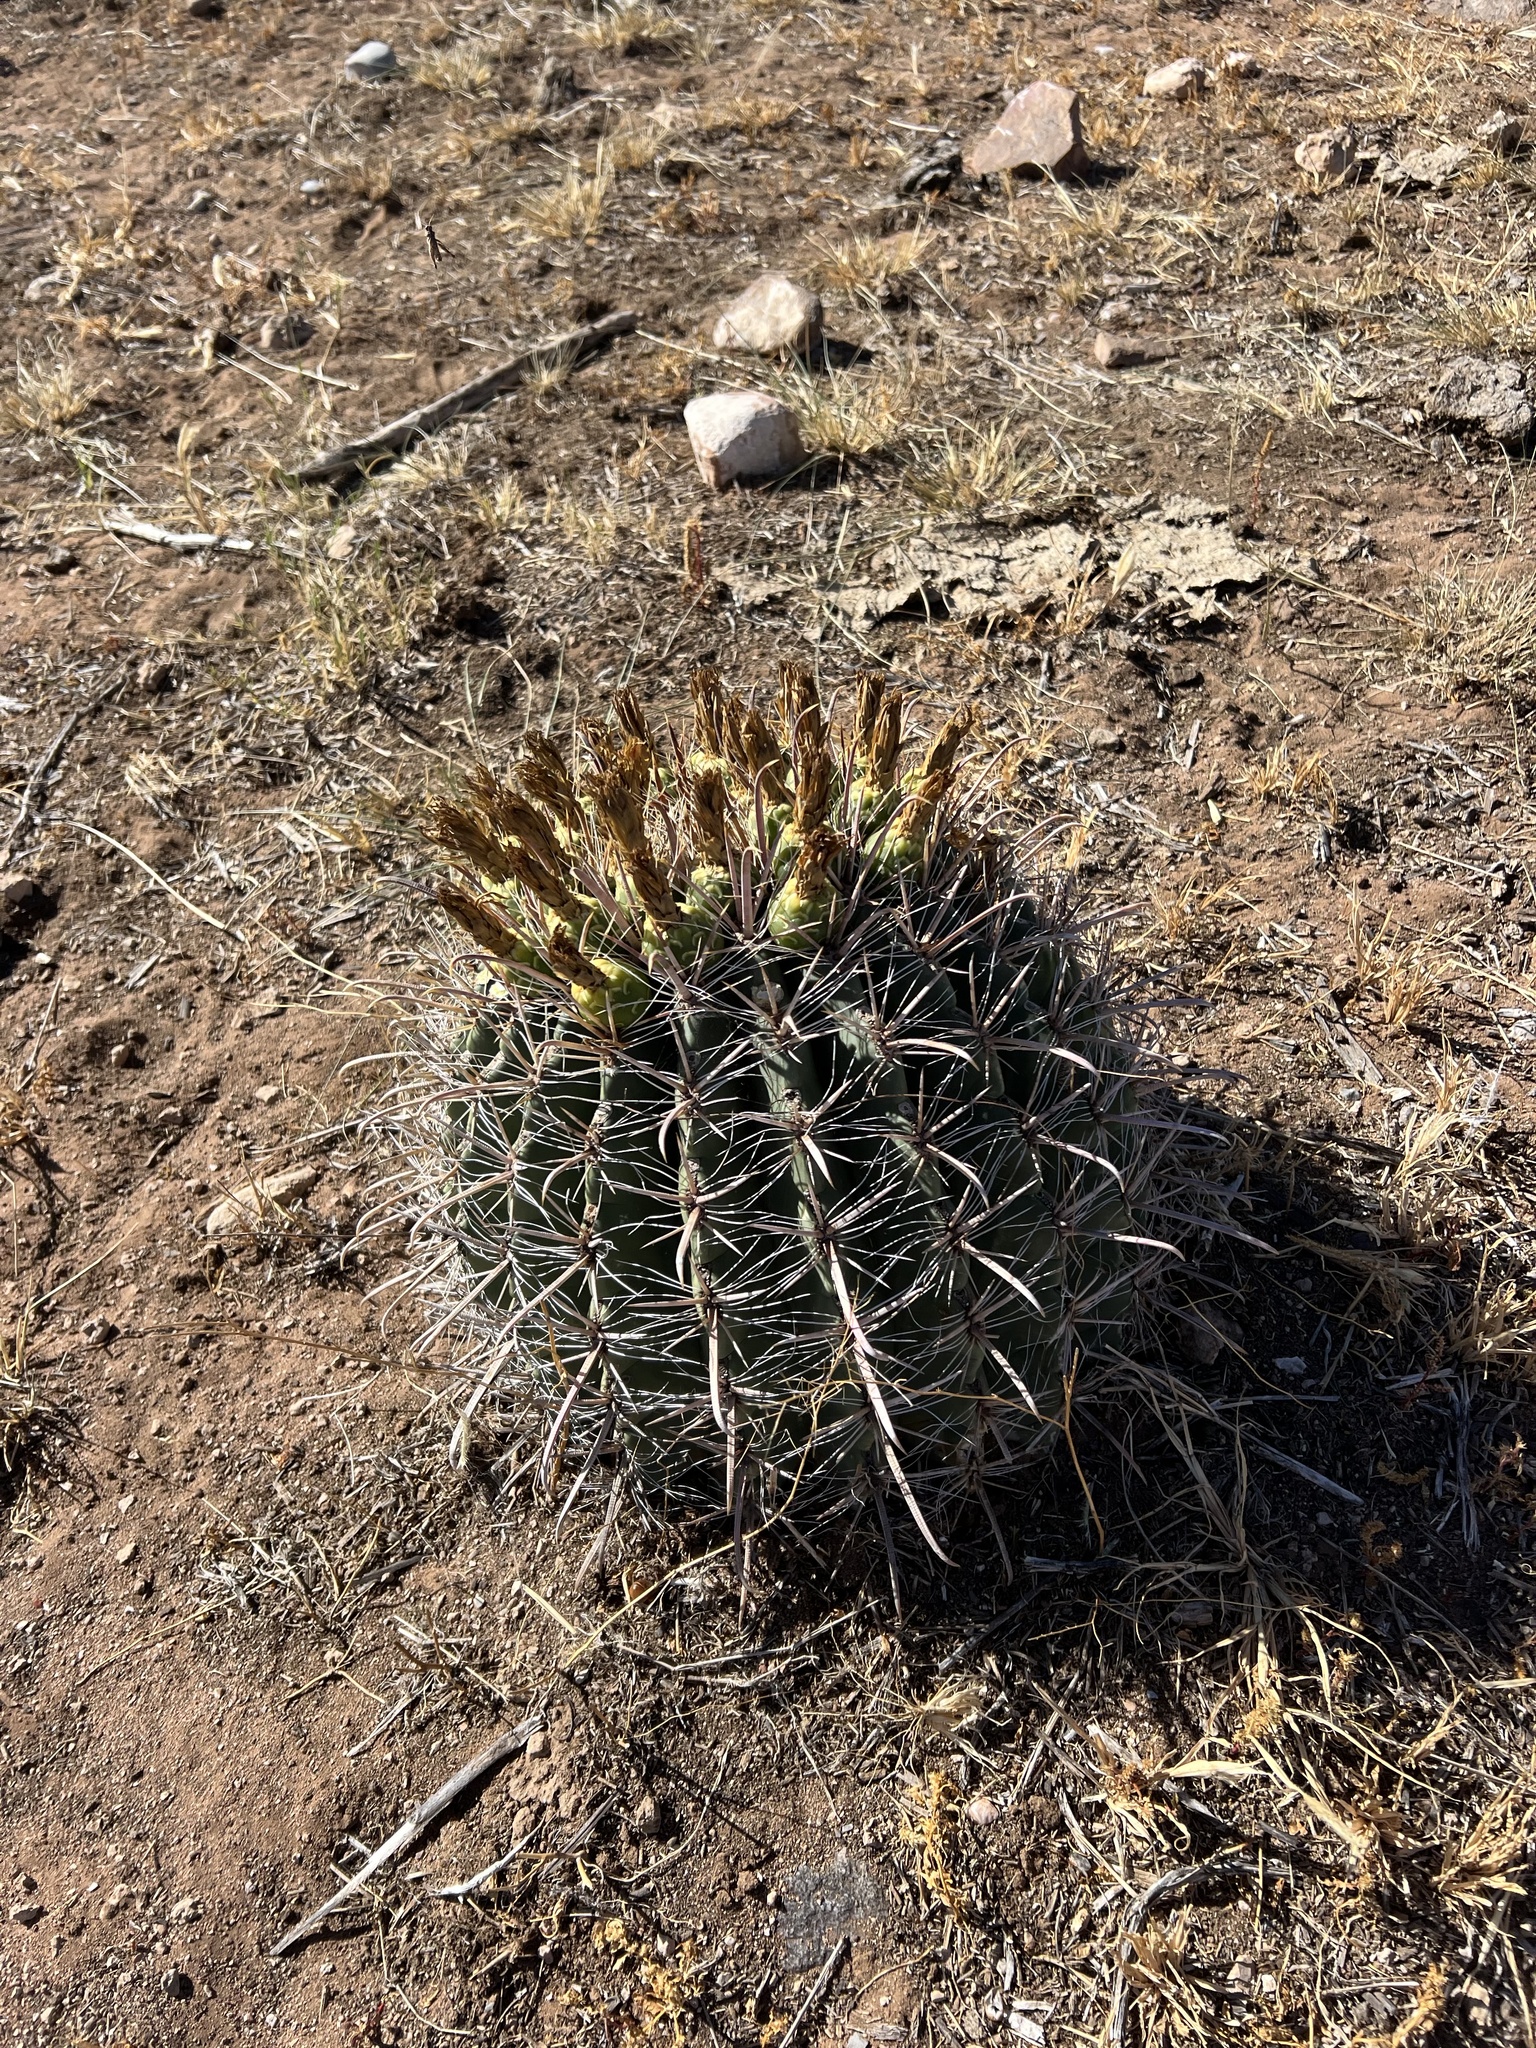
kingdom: Plantae
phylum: Tracheophyta
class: Magnoliopsida
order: Caryophyllales
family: Cactaceae
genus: Ferocactus
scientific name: Ferocactus wislizeni
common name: Candy barrel cactus
